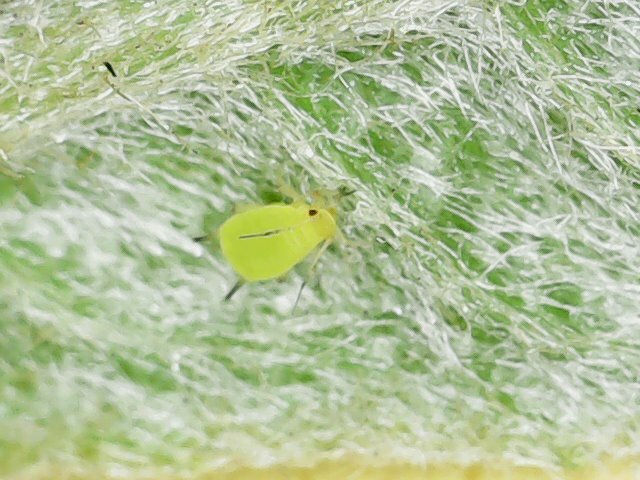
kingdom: Animalia
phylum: Arthropoda
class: Insecta
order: Hemiptera
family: Aphididae
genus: Aphis
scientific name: Aphis spiraecola
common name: Spirea aphid
